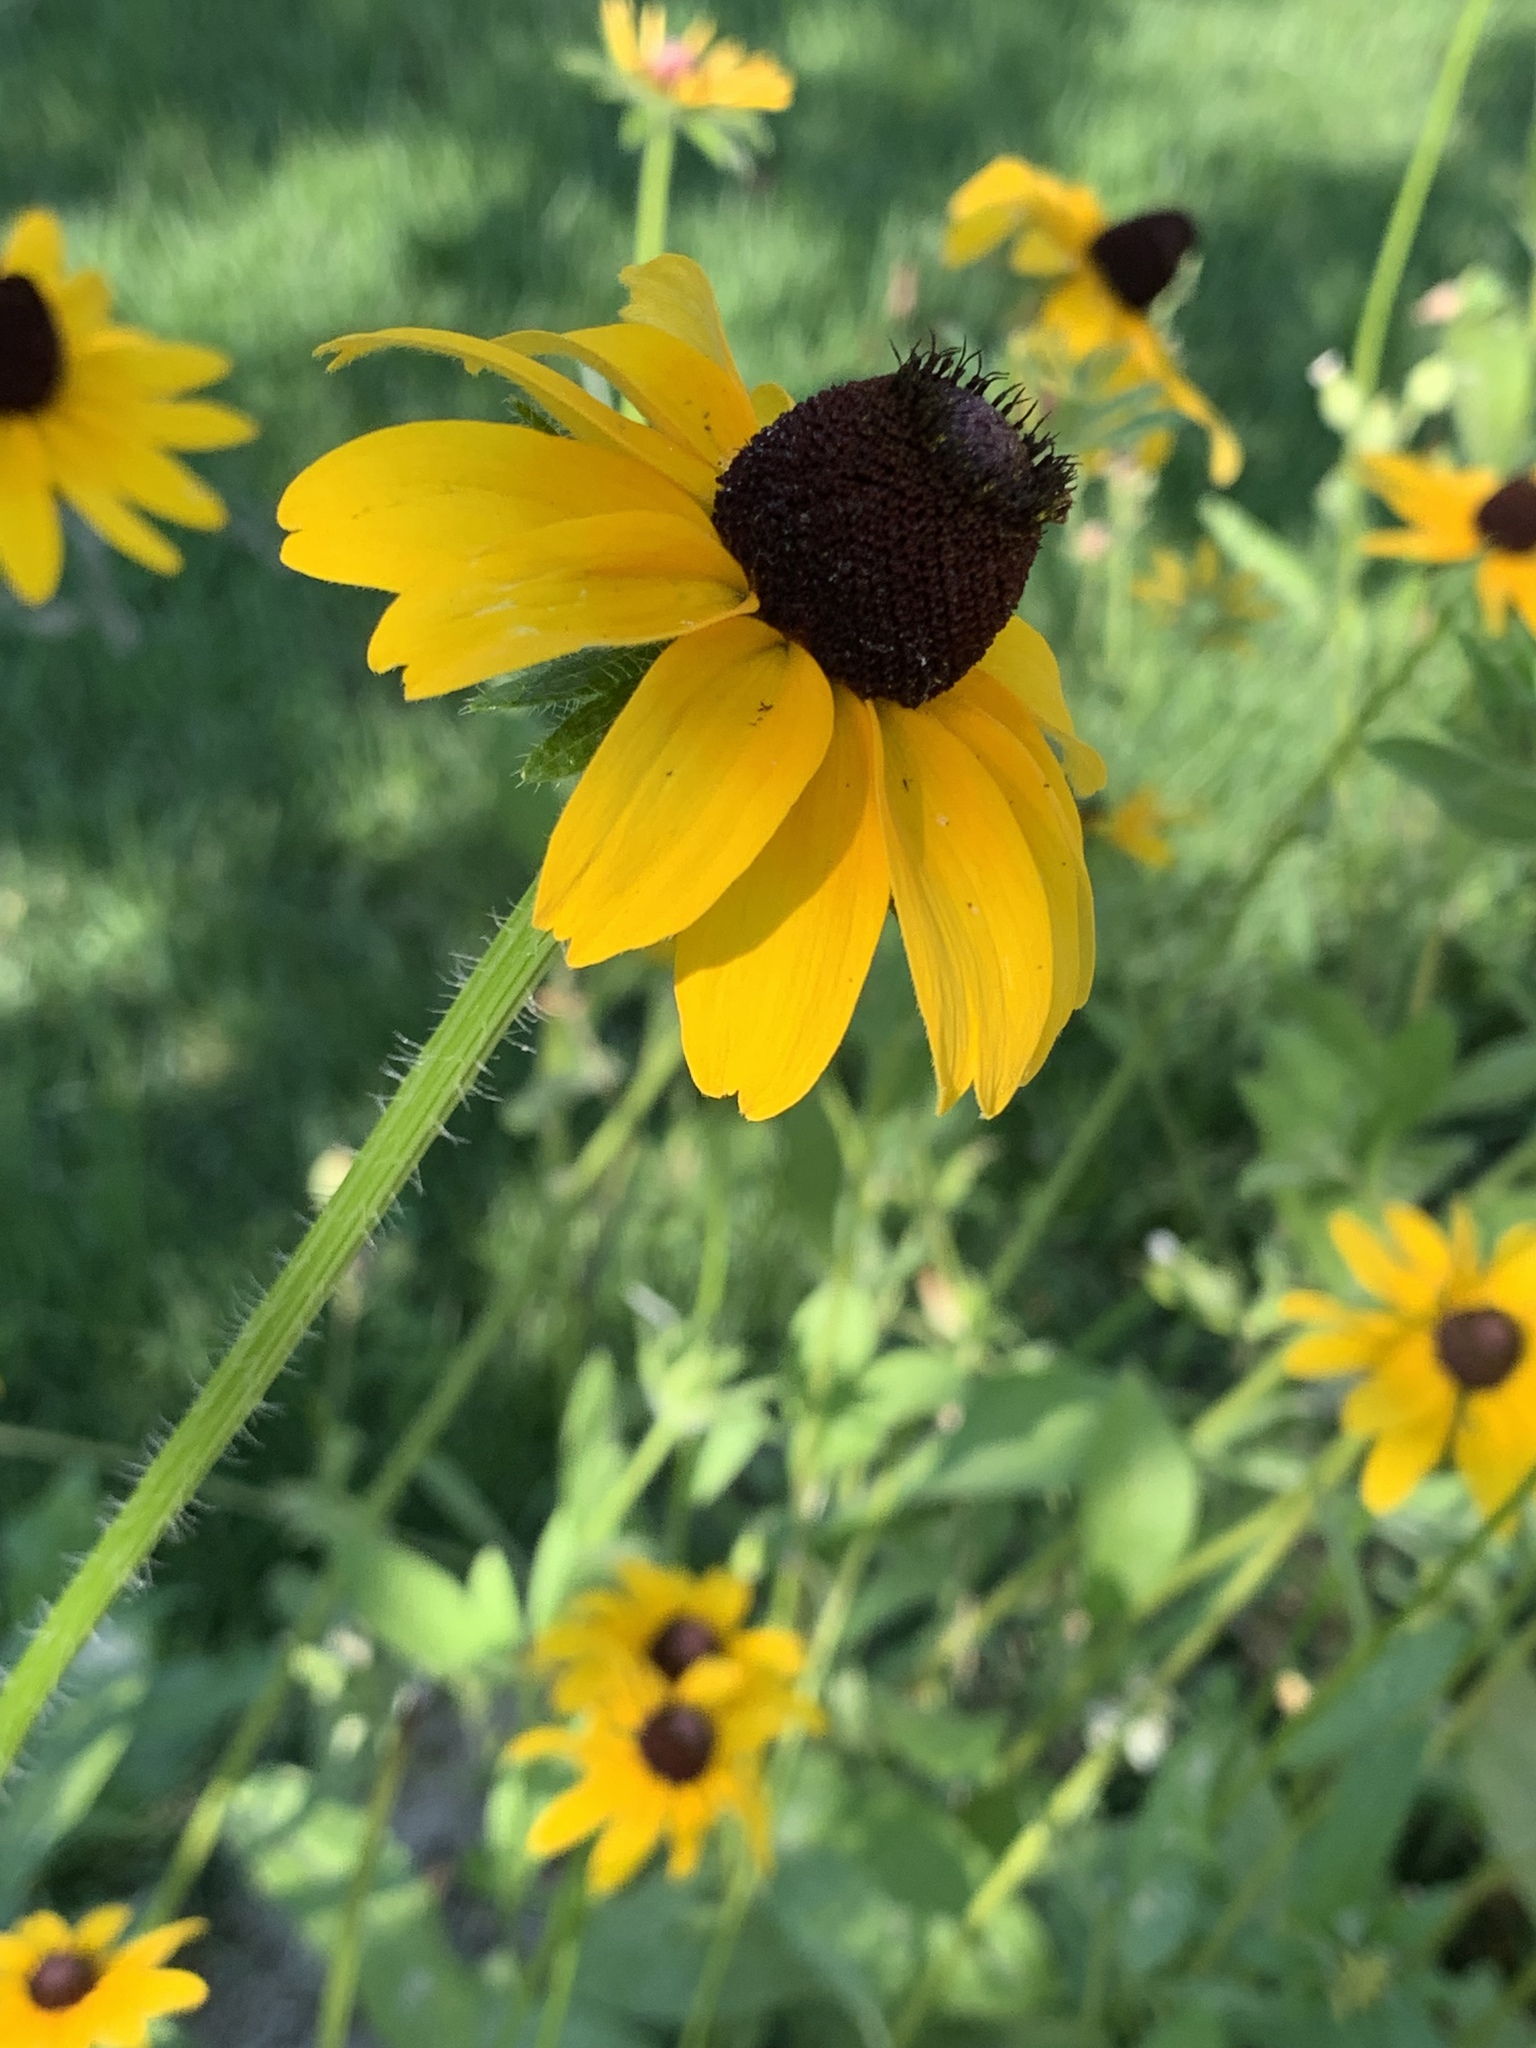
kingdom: Plantae
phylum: Tracheophyta
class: Magnoliopsida
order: Asterales
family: Asteraceae
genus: Rudbeckia
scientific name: Rudbeckia hirta
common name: Black-eyed-susan
